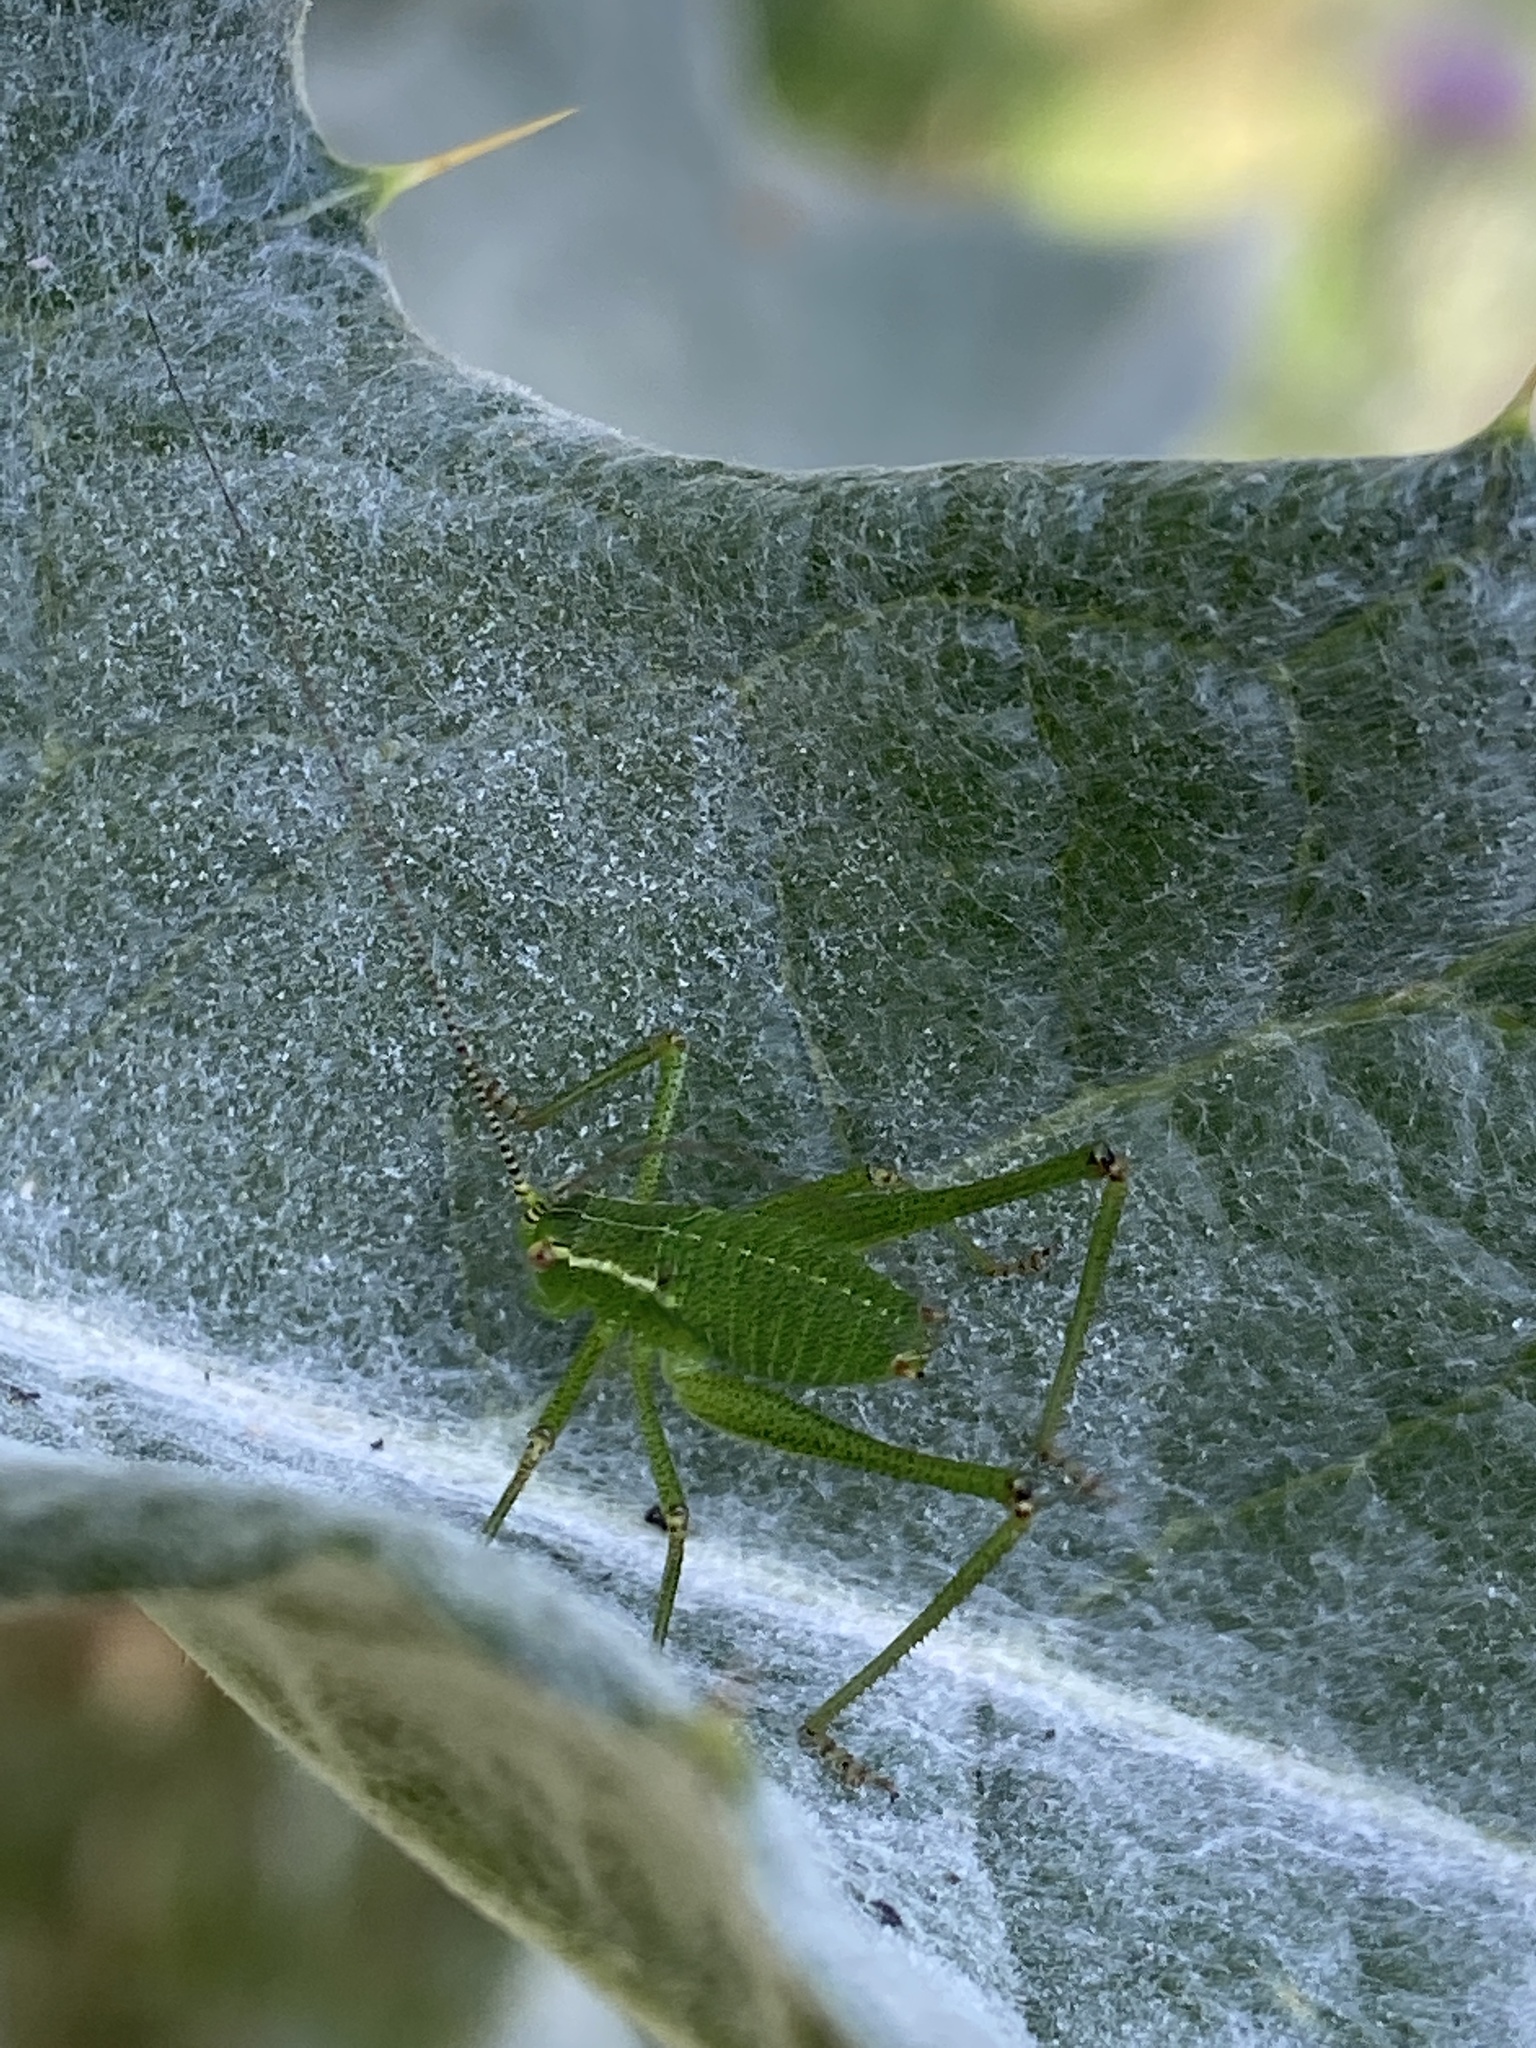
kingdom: Animalia
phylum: Arthropoda
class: Insecta
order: Orthoptera
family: Tettigoniidae
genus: Leptophyes
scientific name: Leptophyes punctatissima
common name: Speckled bush-cricket
